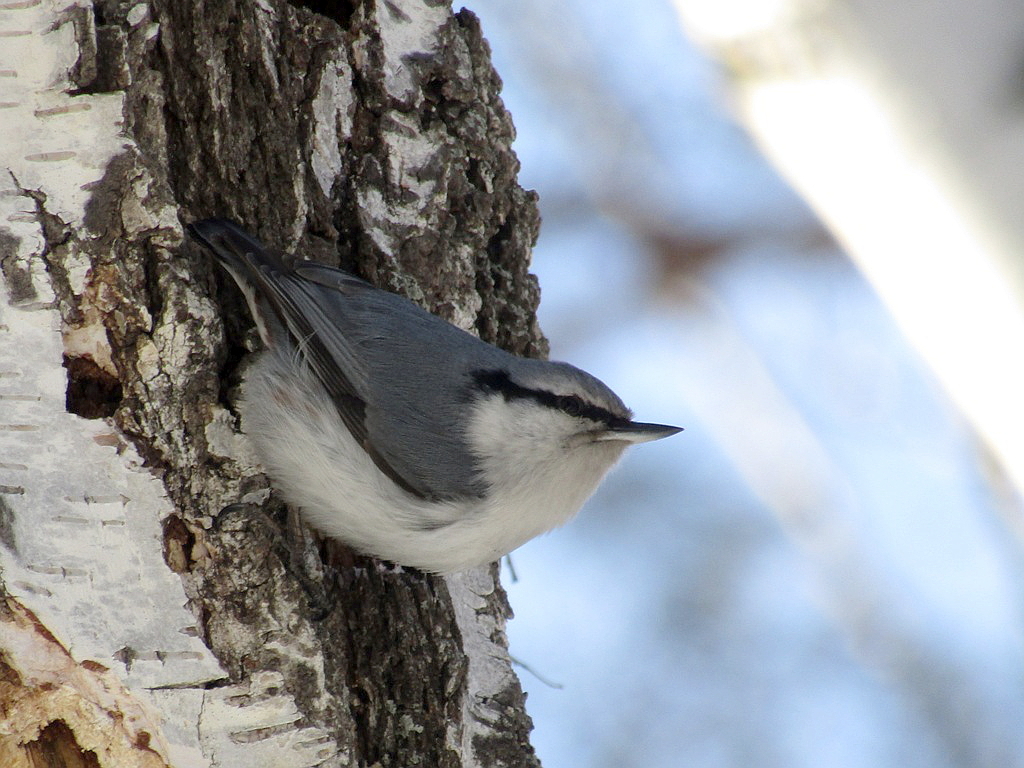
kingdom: Animalia
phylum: Chordata
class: Aves
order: Passeriformes
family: Sittidae
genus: Sitta
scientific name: Sitta europaea
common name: Eurasian nuthatch
